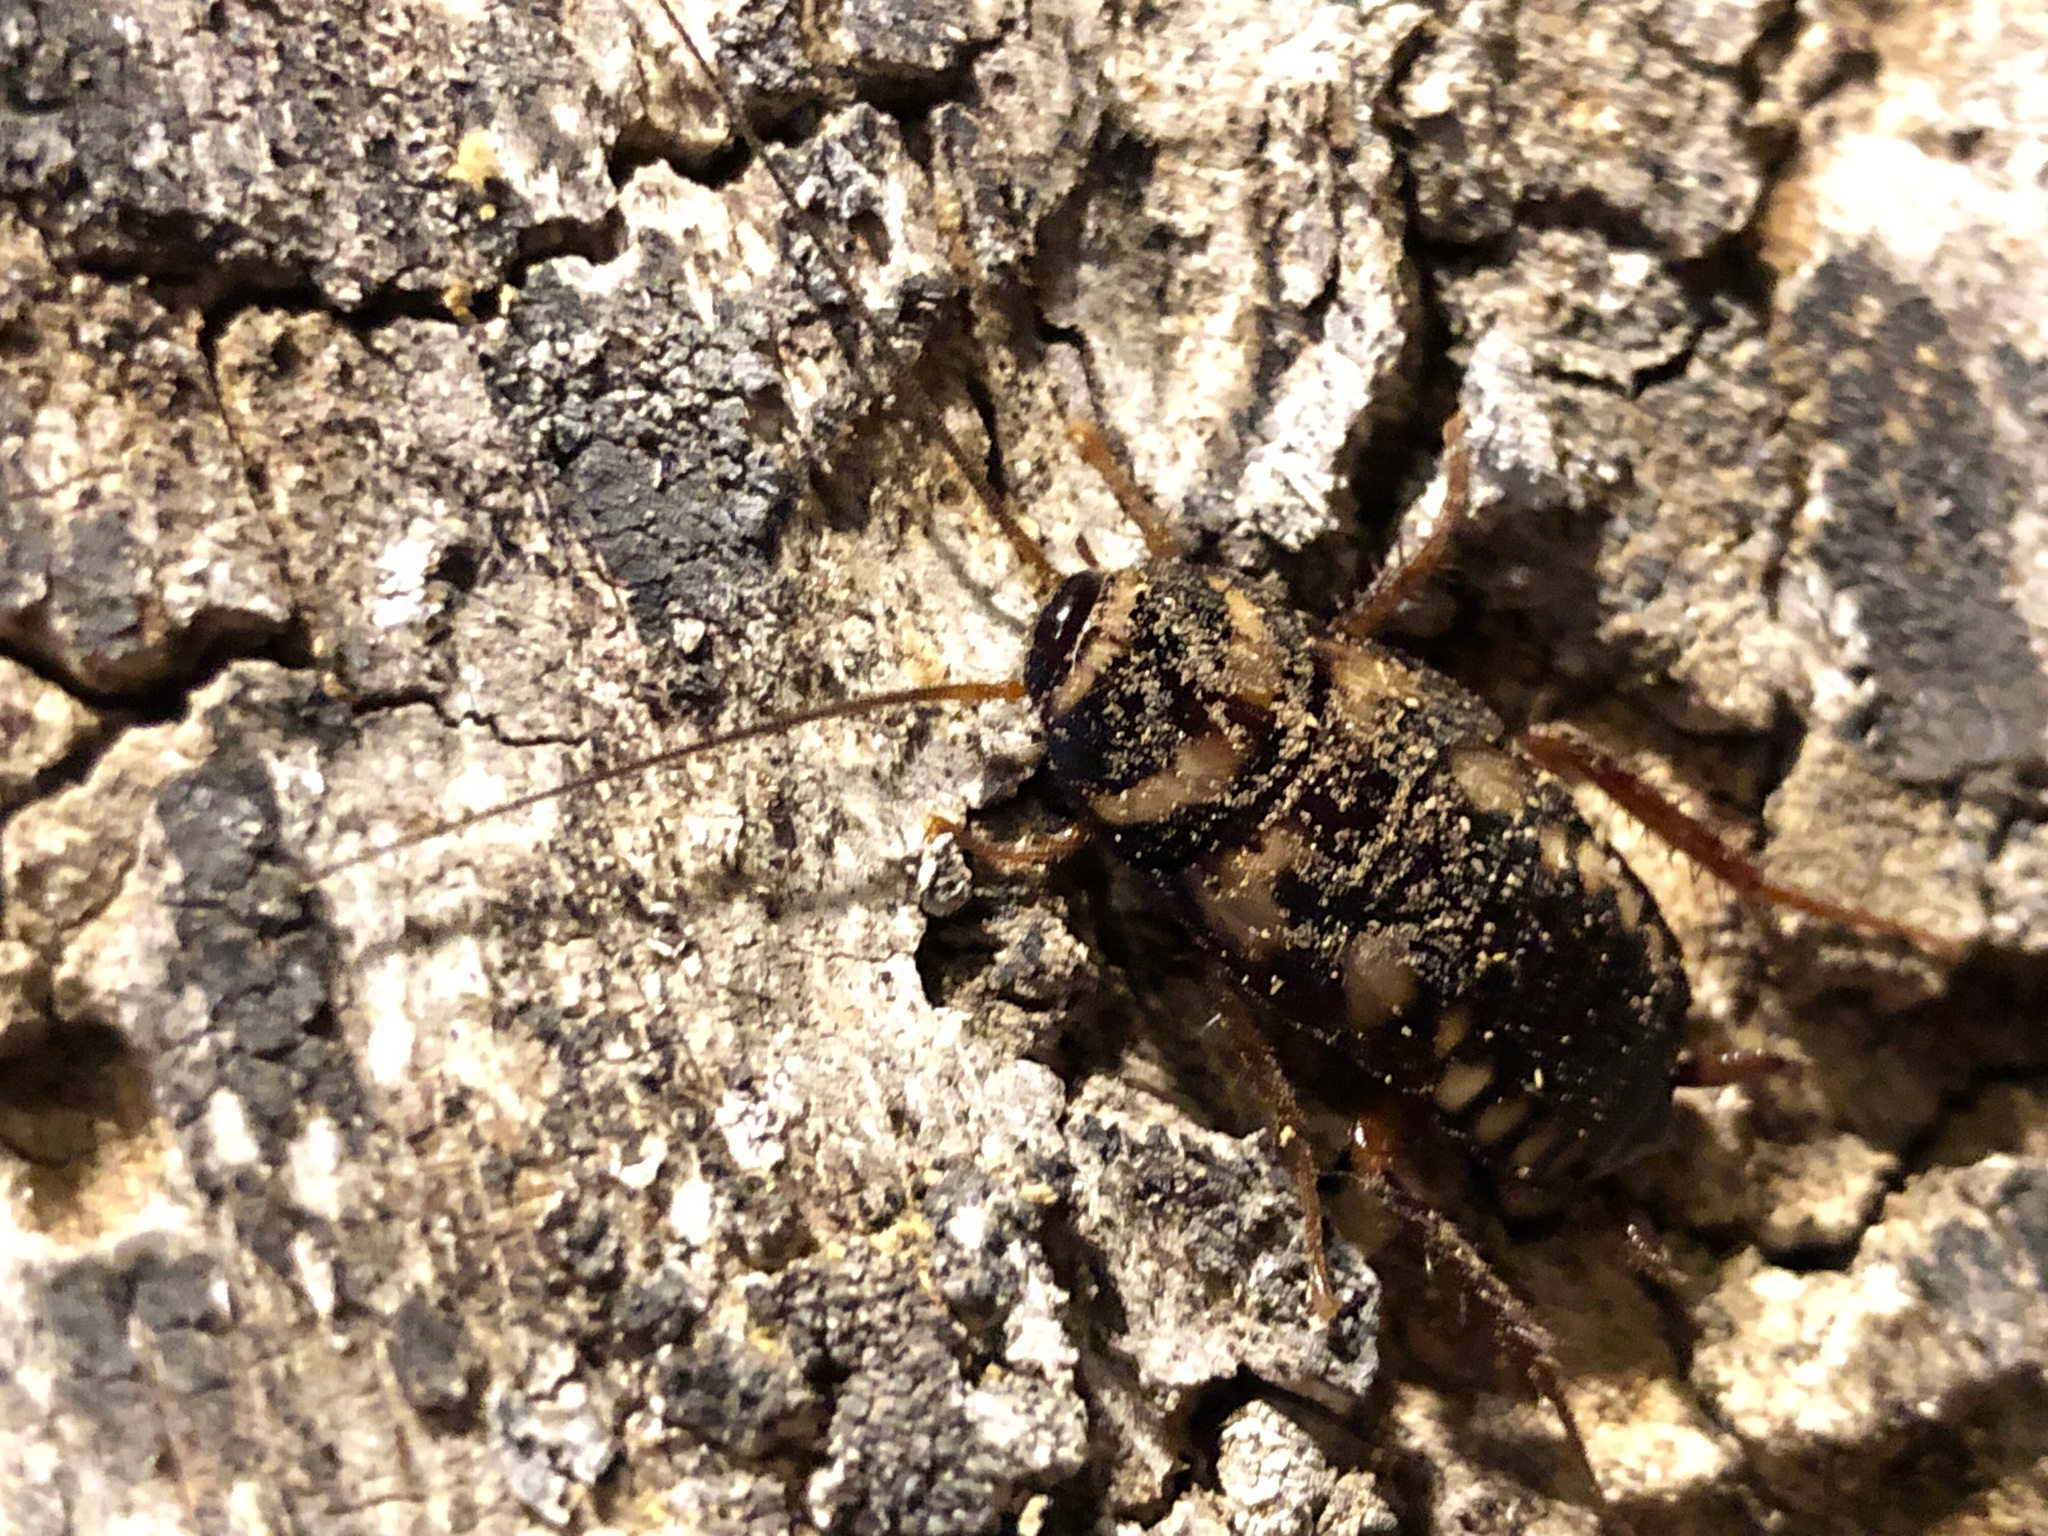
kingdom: Animalia
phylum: Arthropoda
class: Insecta
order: Blattodea
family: Blattidae
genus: Periplaneta
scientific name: Periplaneta australasiae
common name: Australian cockroach
